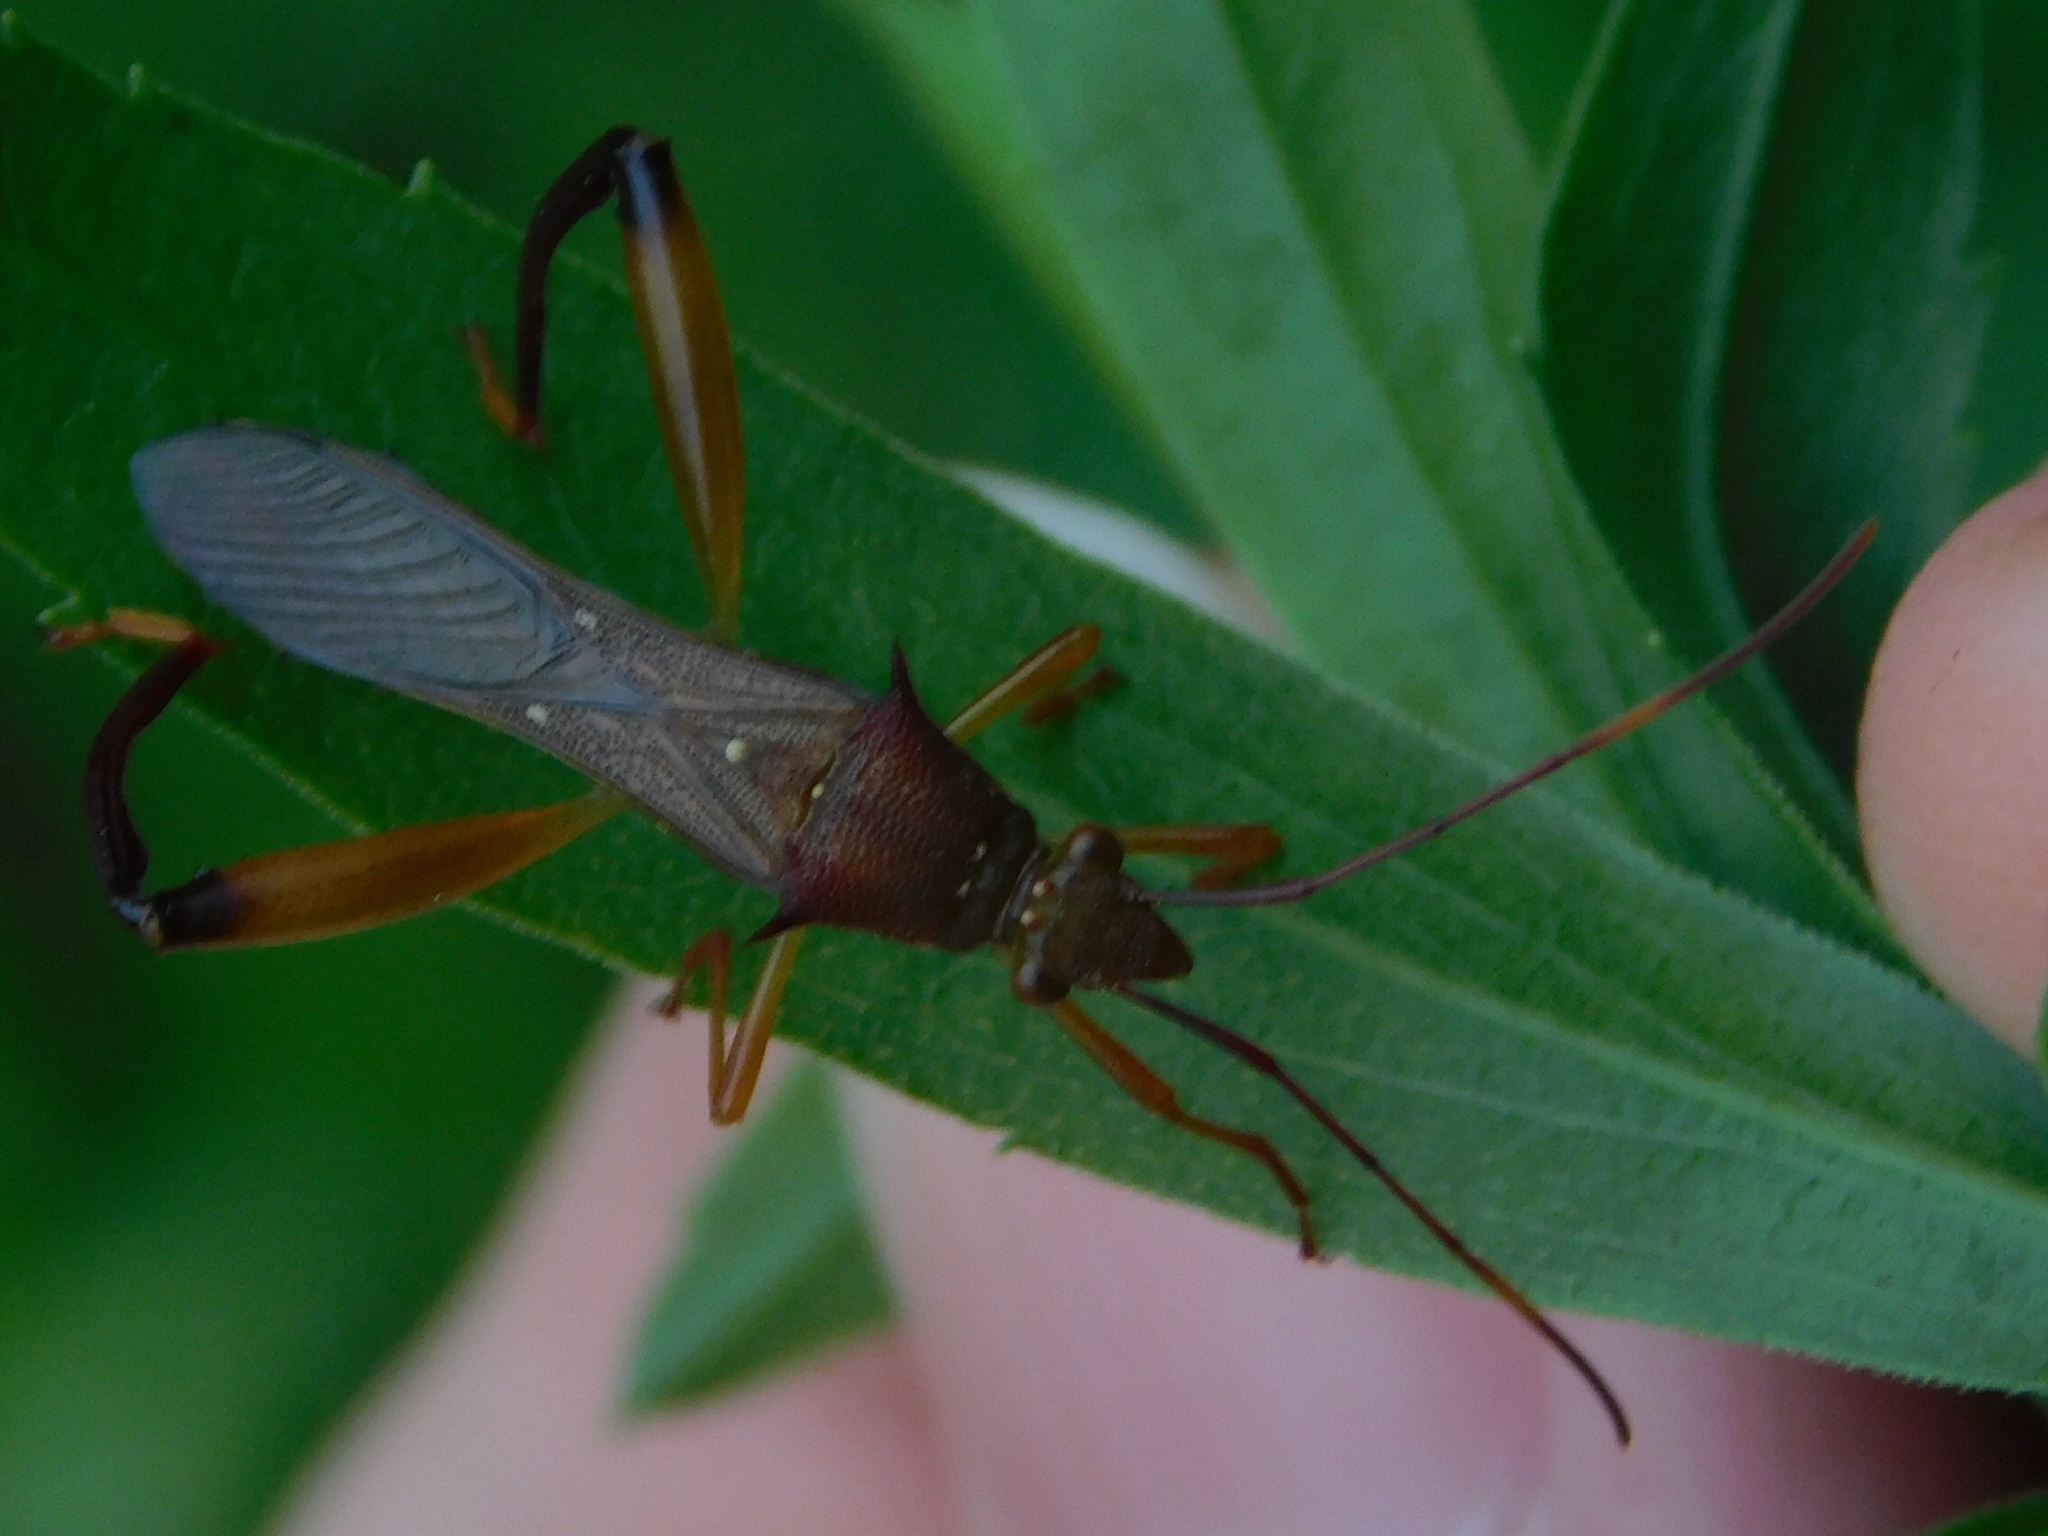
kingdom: Animalia
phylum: Arthropoda
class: Insecta
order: Hemiptera
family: Alydidae
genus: Hyalymenus
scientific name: Hyalymenus longispinus
